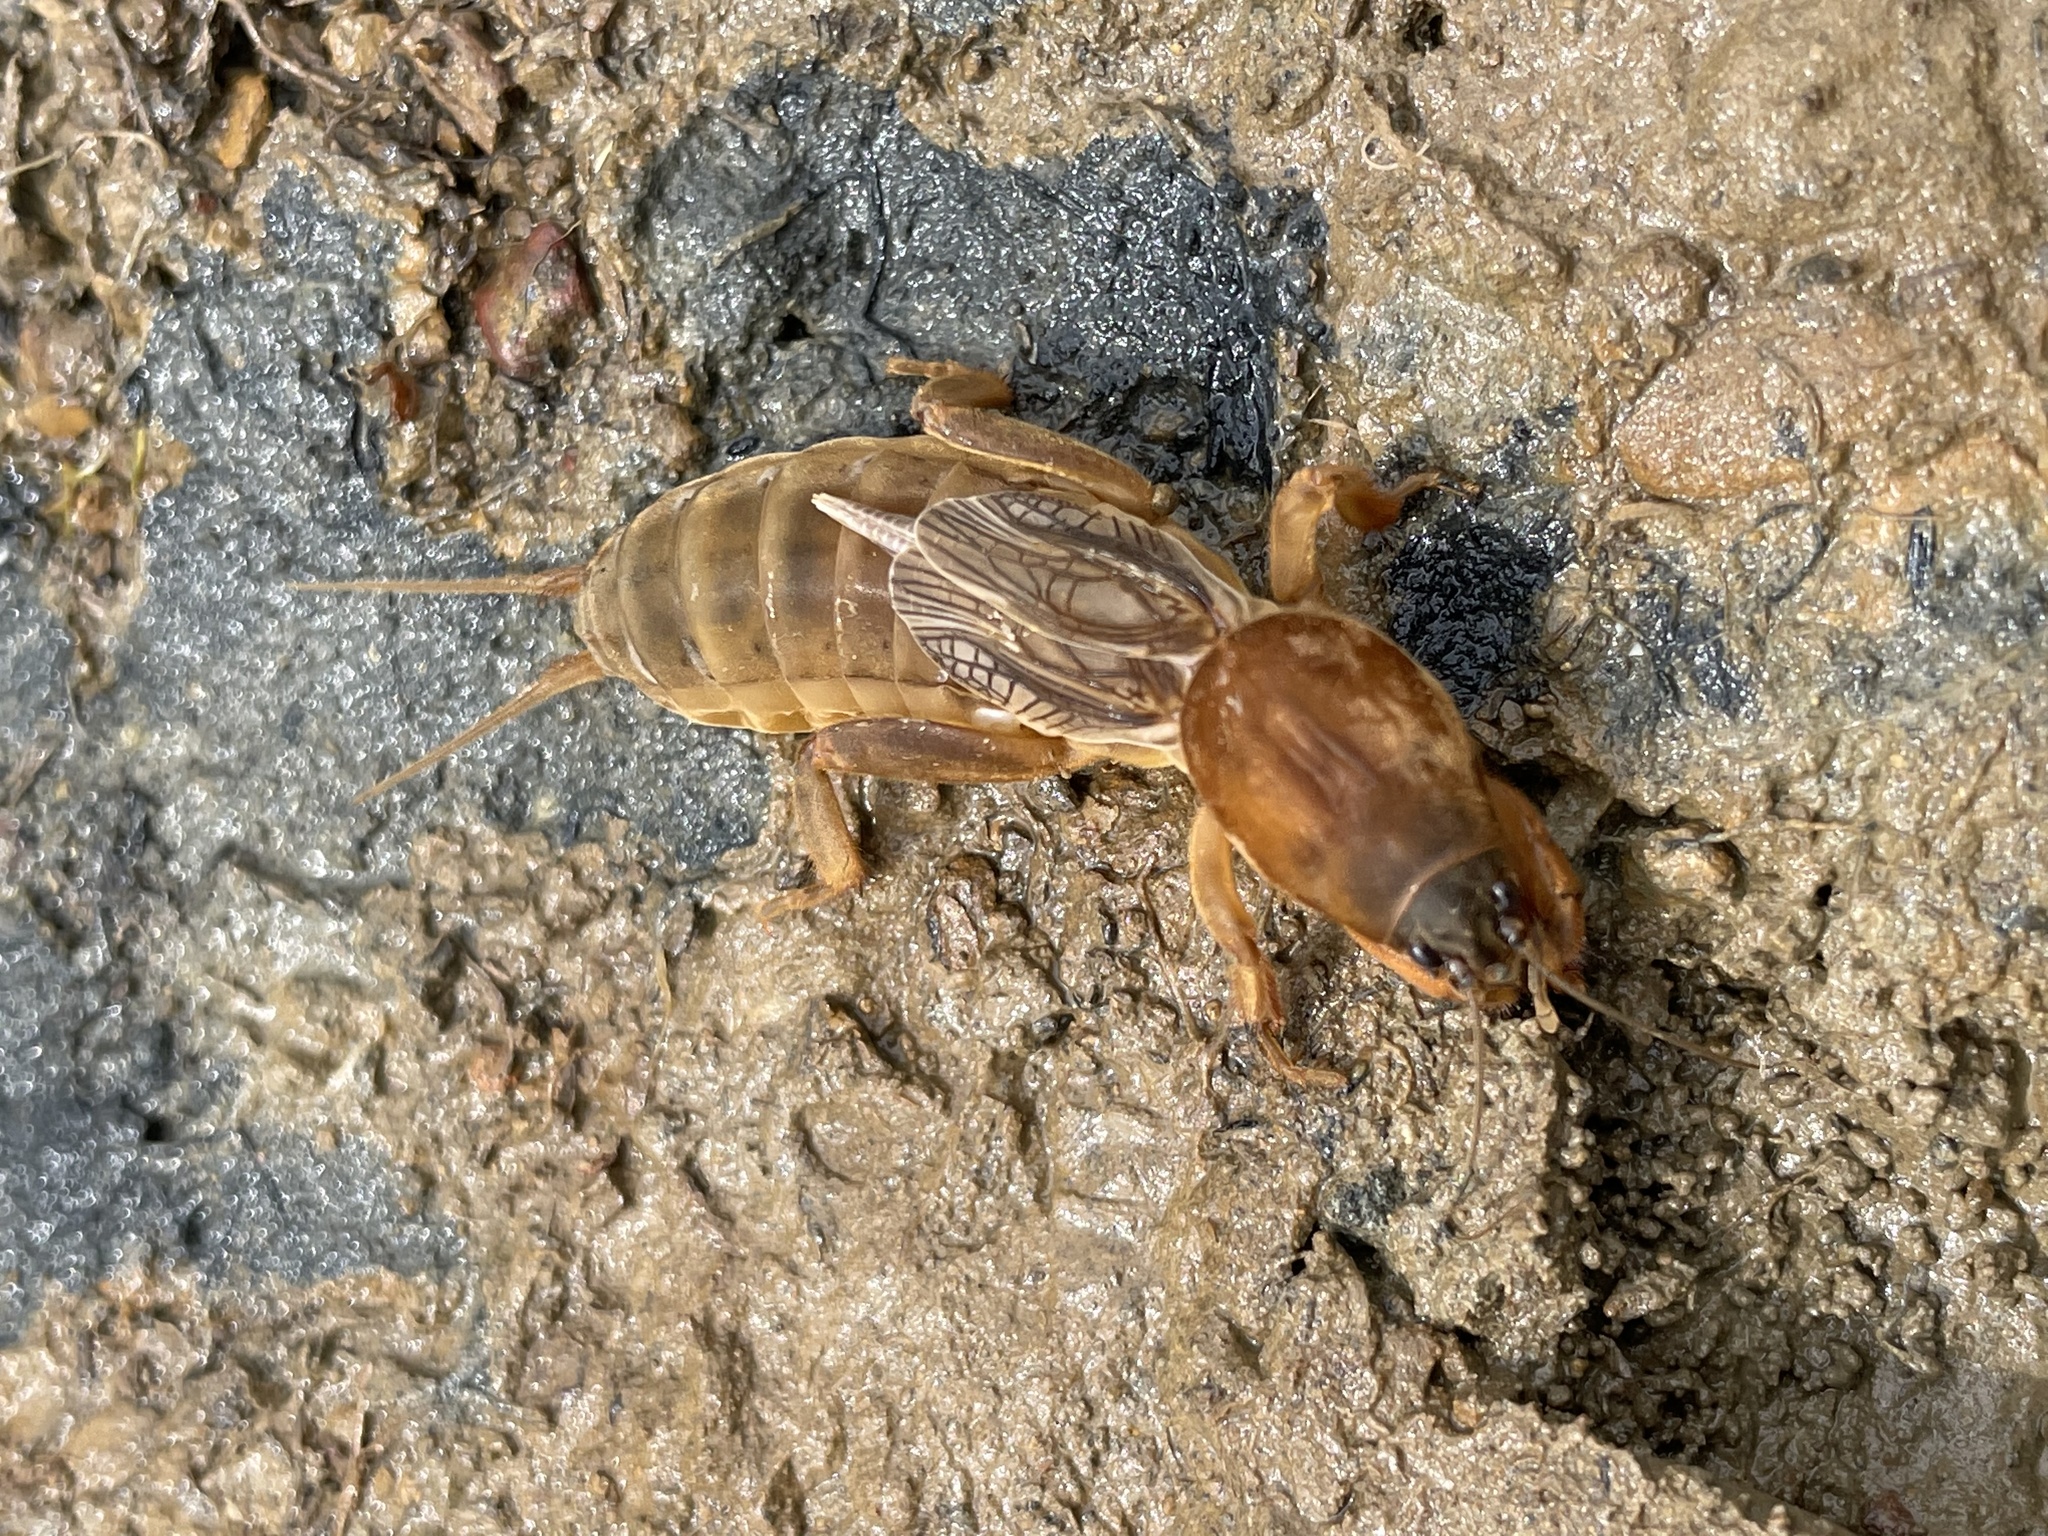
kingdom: Animalia
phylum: Arthropoda
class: Insecta
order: Orthoptera
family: Gryllotalpidae
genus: Neocurtilla
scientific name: Neocurtilla hexadactyla
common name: Northern mole cricket
